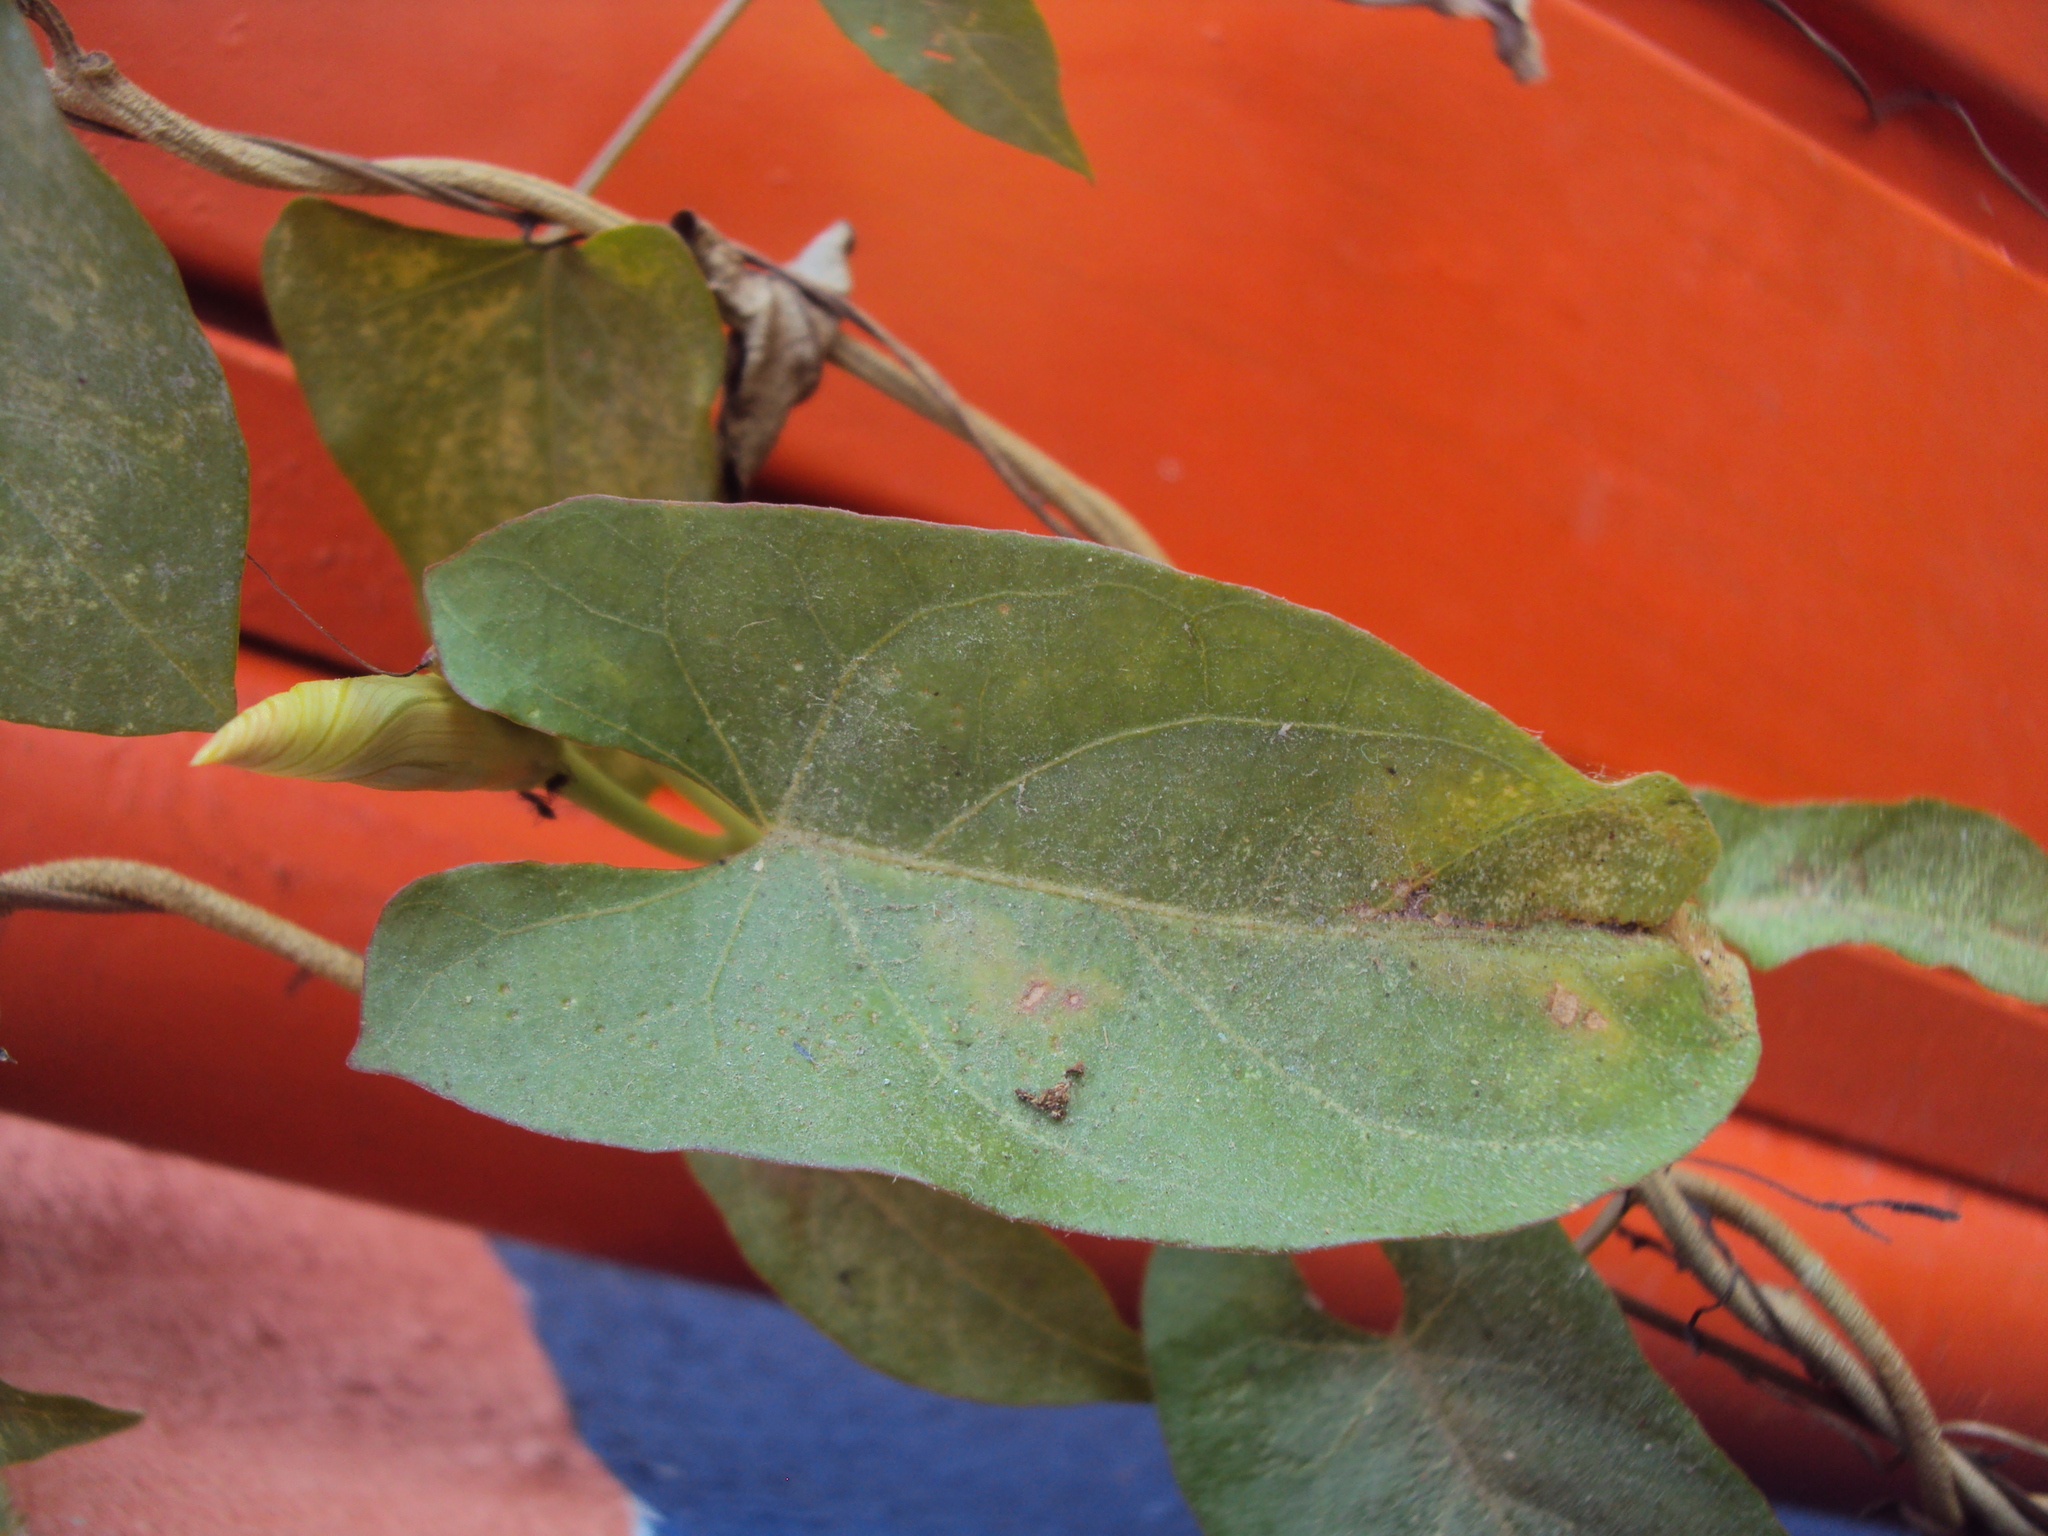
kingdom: Plantae
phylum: Tracheophyta
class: Magnoliopsida
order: Solanales
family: Convolvulaceae
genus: Ipomoea
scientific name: Ipomoea squamosa
